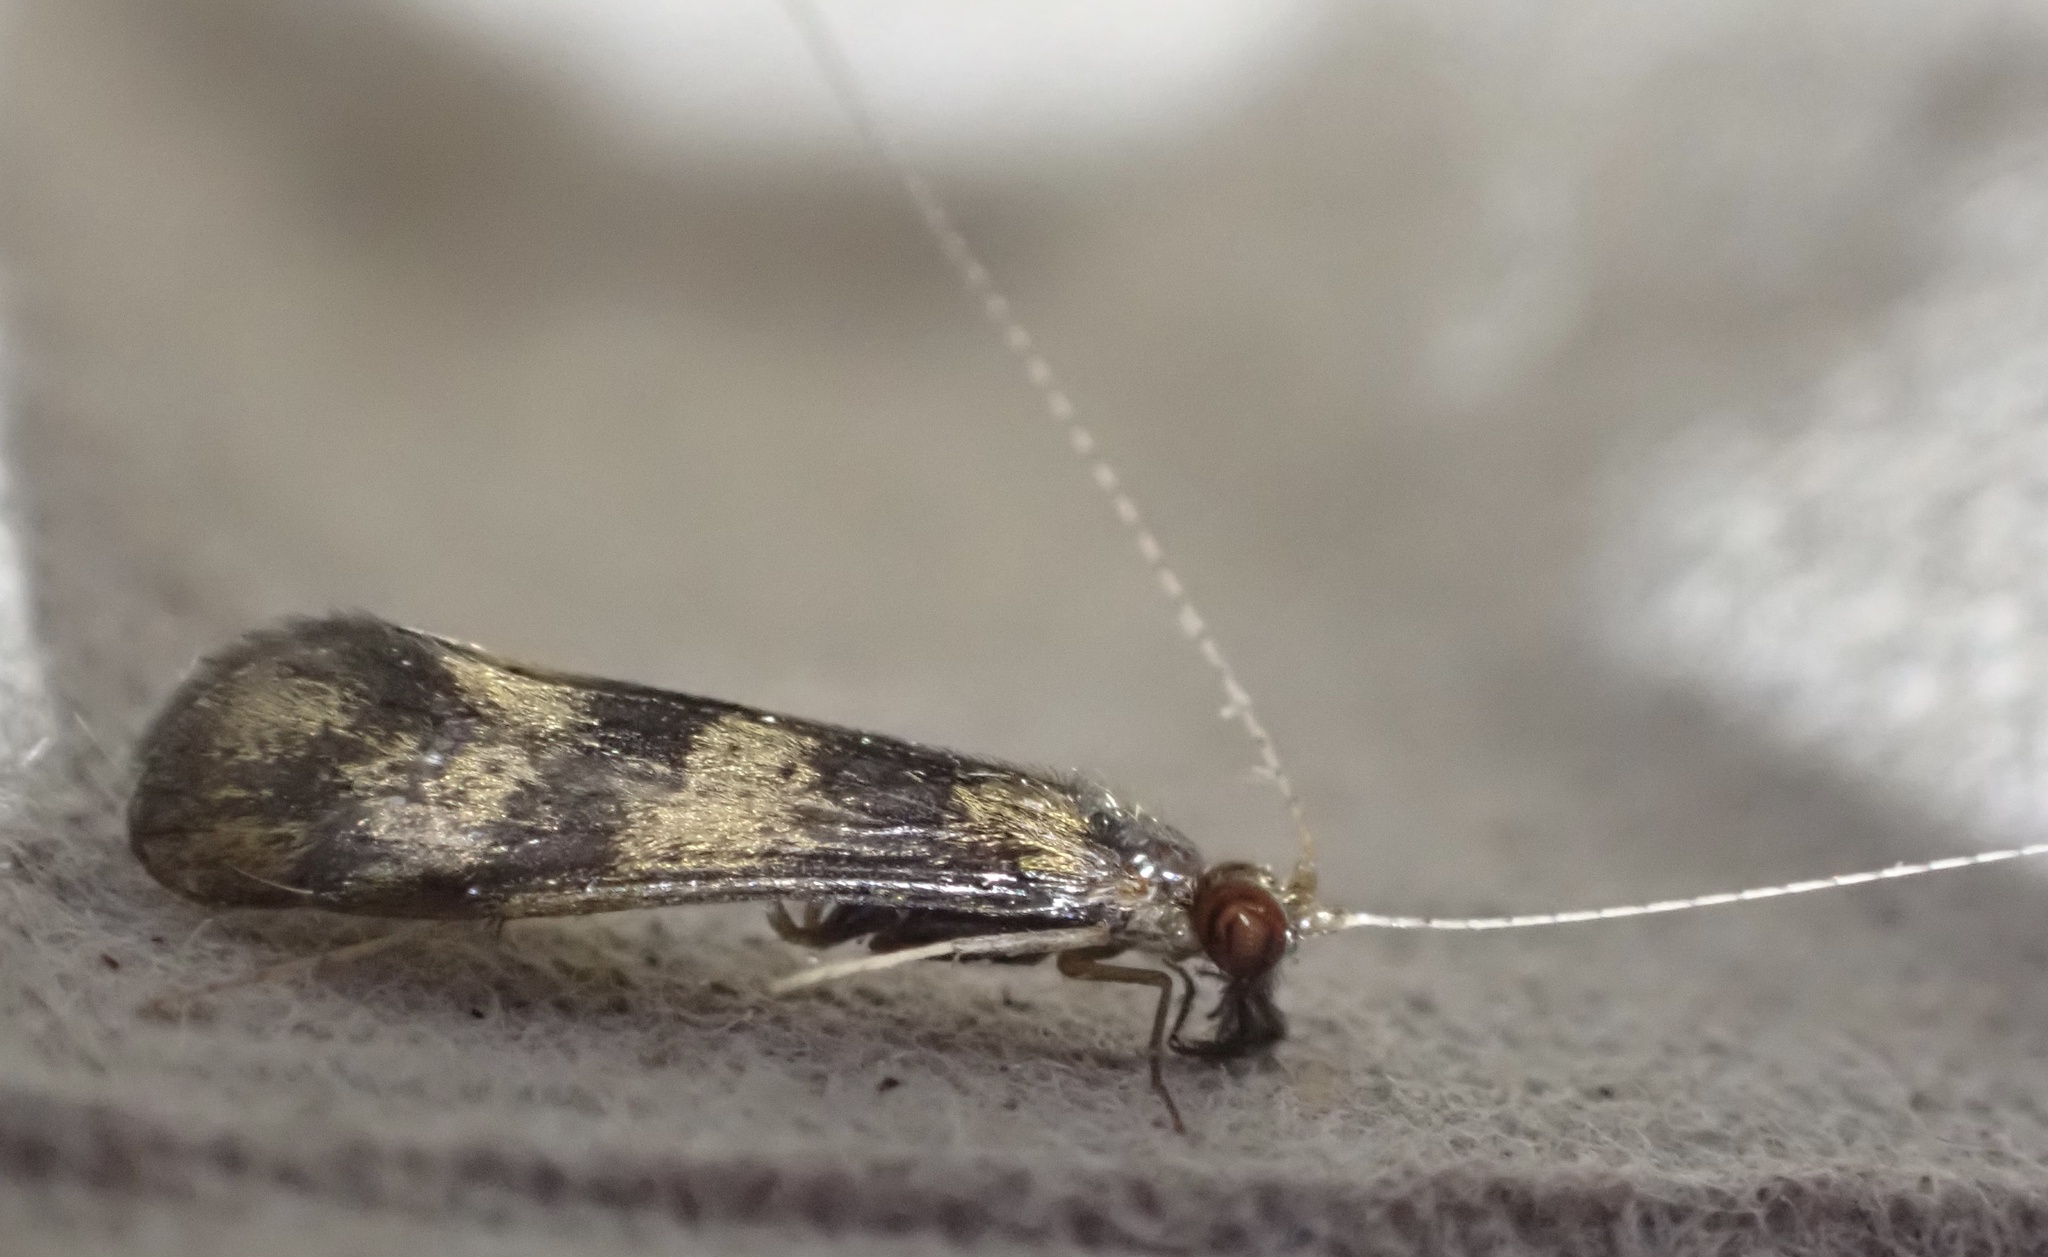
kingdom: Animalia
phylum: Arthropoda
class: Insecta
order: Trichoptera
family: Leptoceridae
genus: Mystacides
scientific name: Mystacides longicornis
